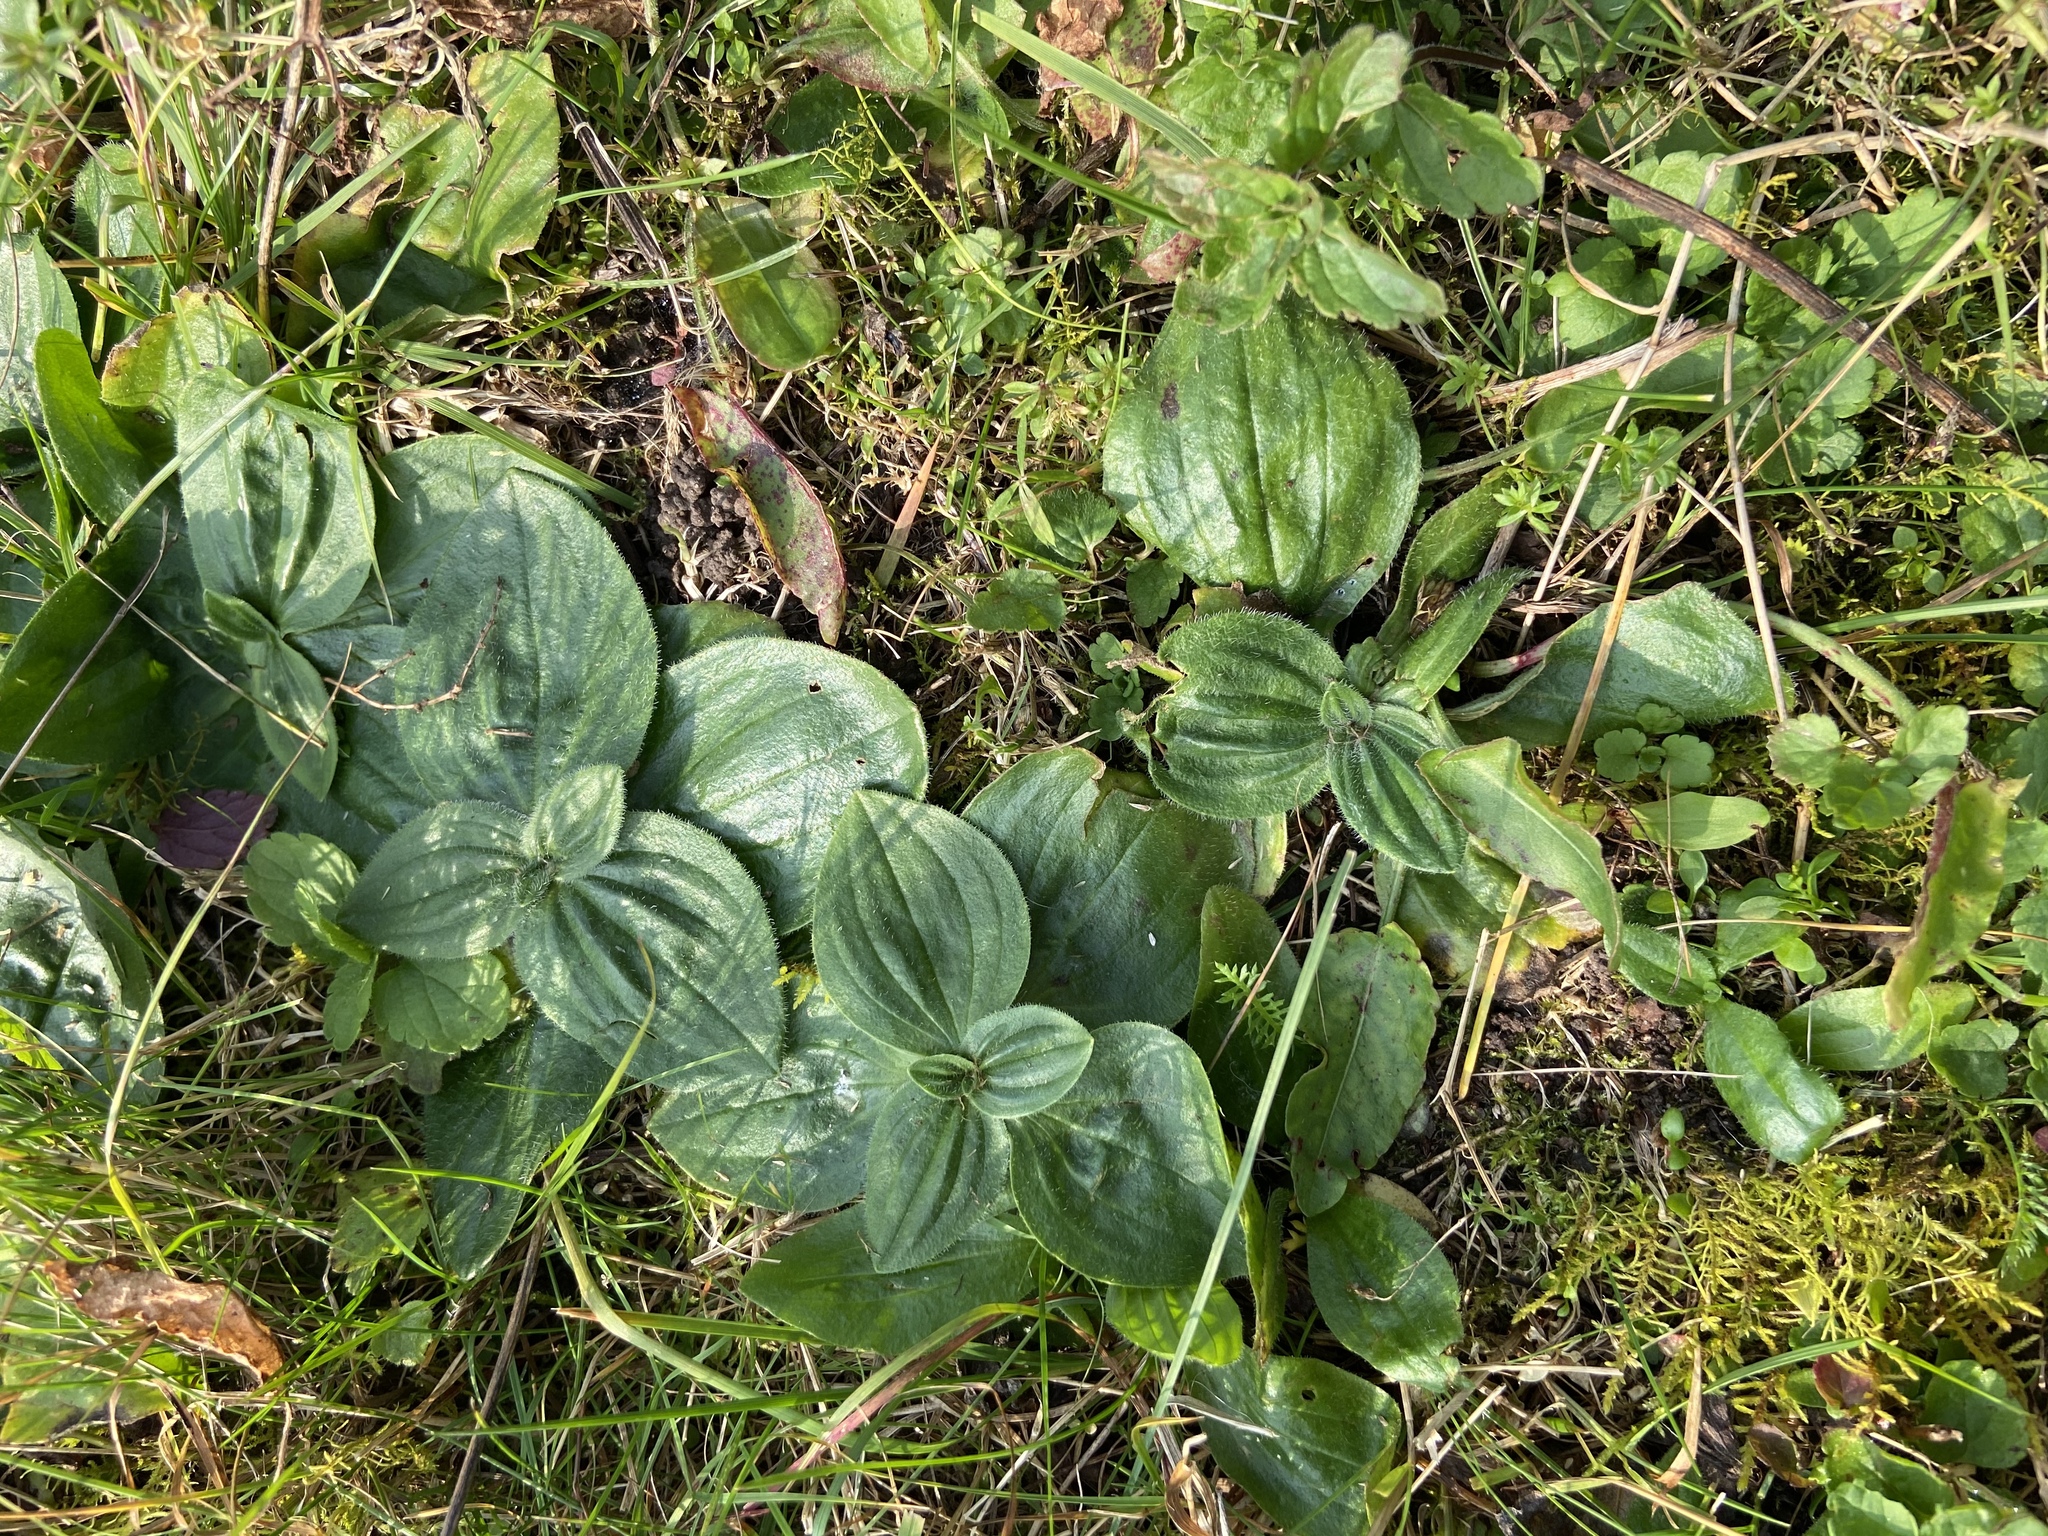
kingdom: Plantae
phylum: Tracheophyta
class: Magnoliopsida
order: Lamiales
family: Plantaginaceae
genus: Plantago
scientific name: Plantago media
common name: Hoary plantain
